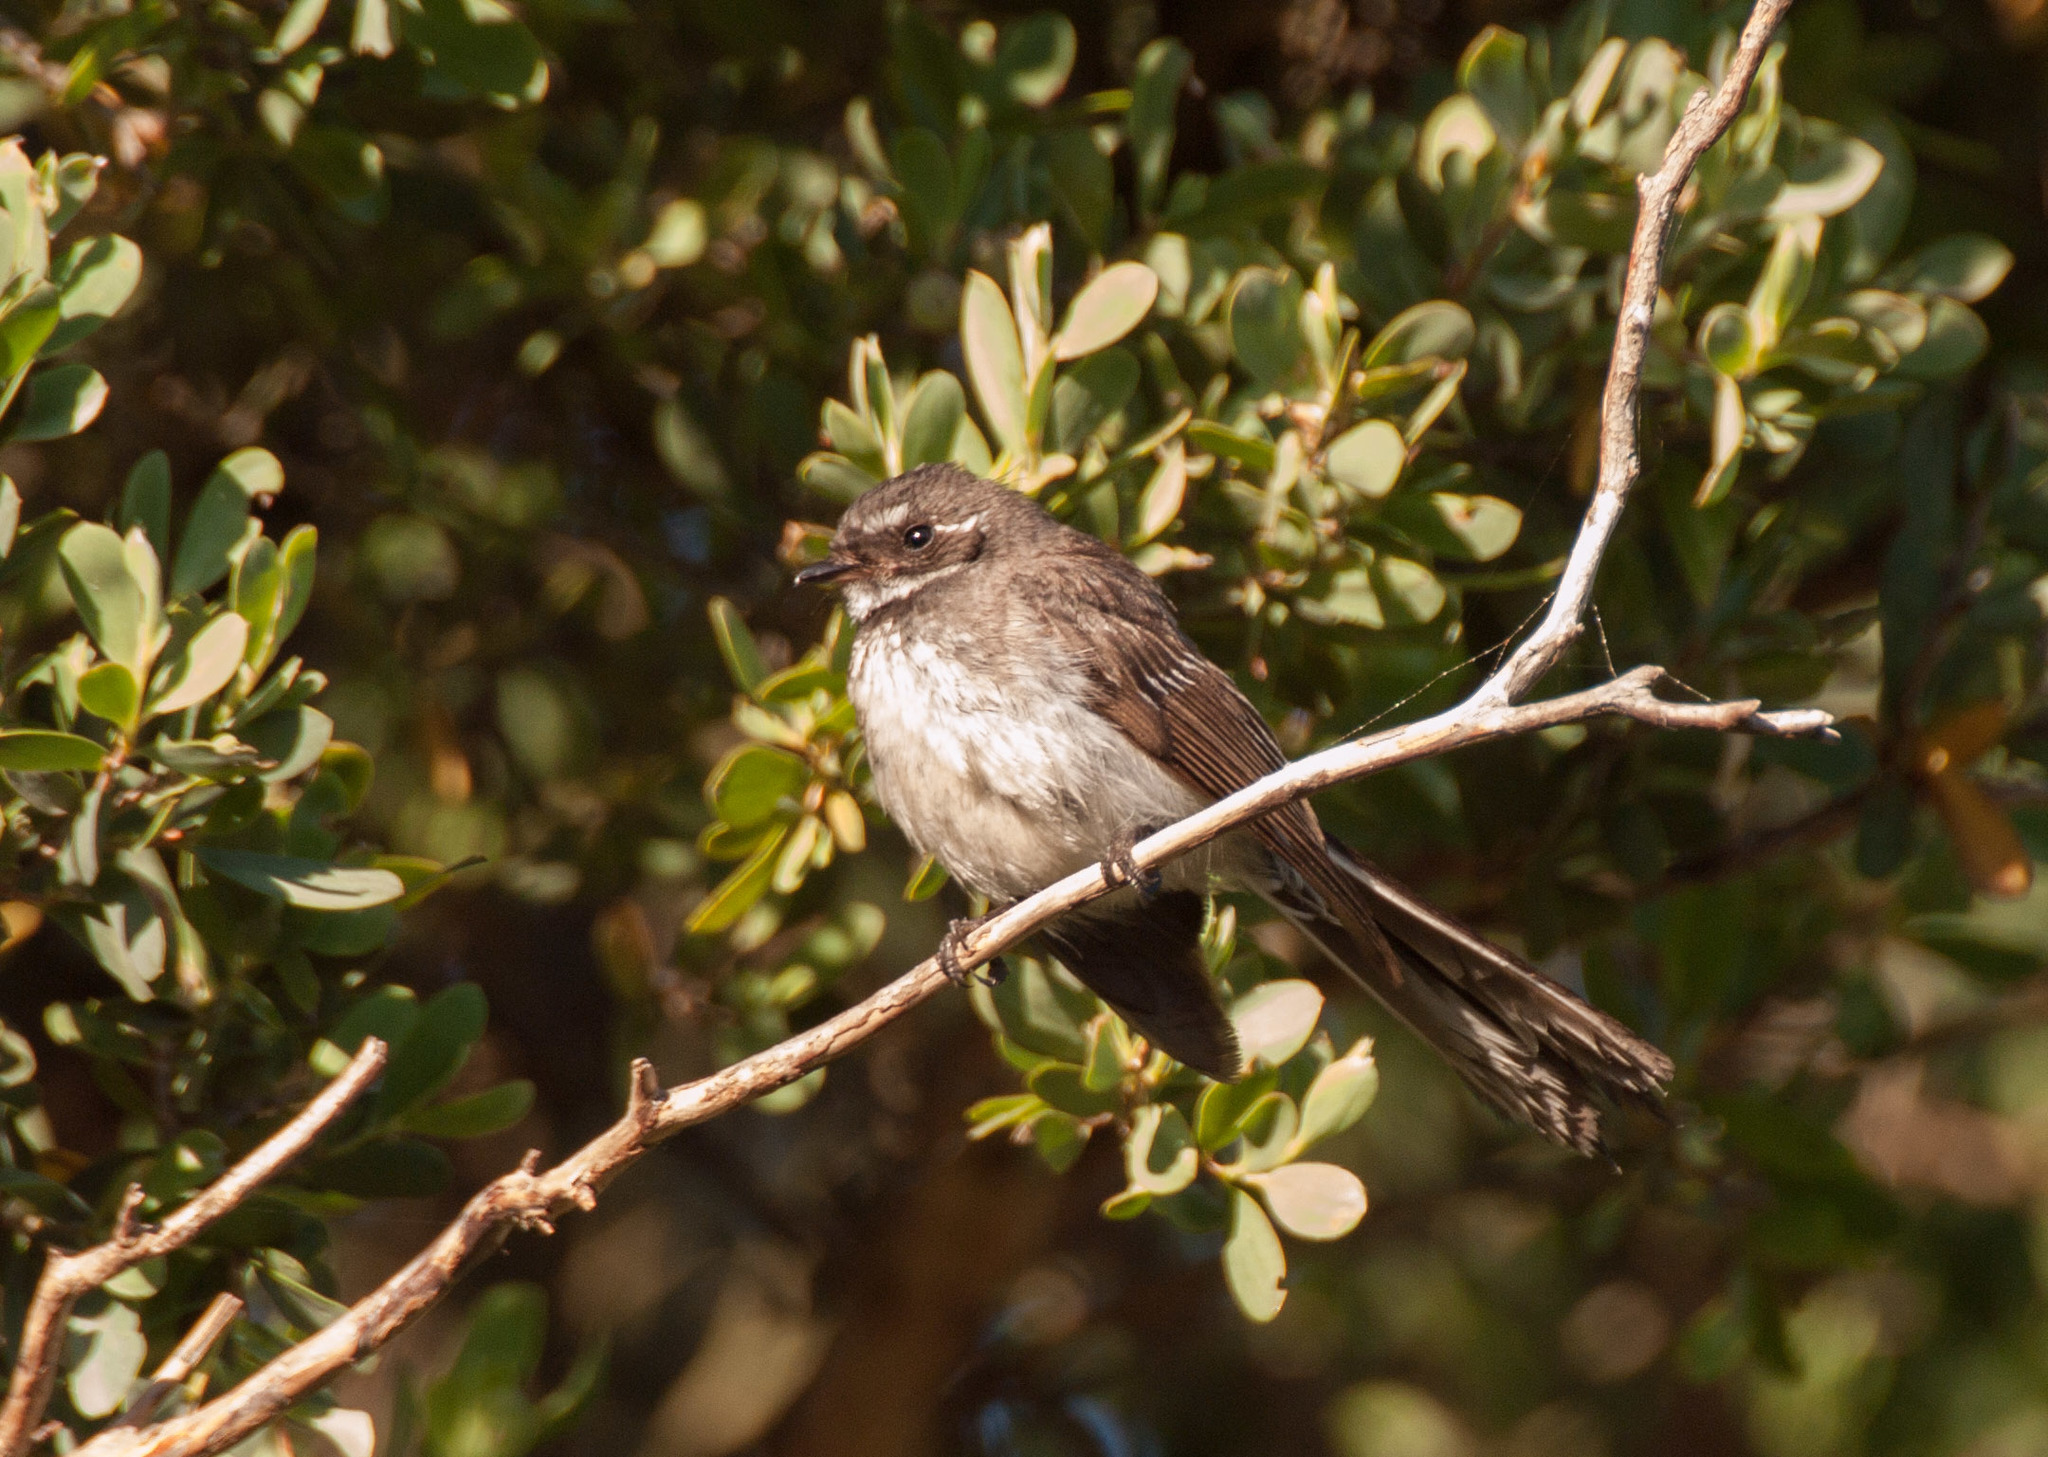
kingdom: Animalia
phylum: Chordata
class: Aves
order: Passeriformes
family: Rhipiduridae
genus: Rhipidura
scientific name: Rhipidura albiscapa
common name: Grey fantail
